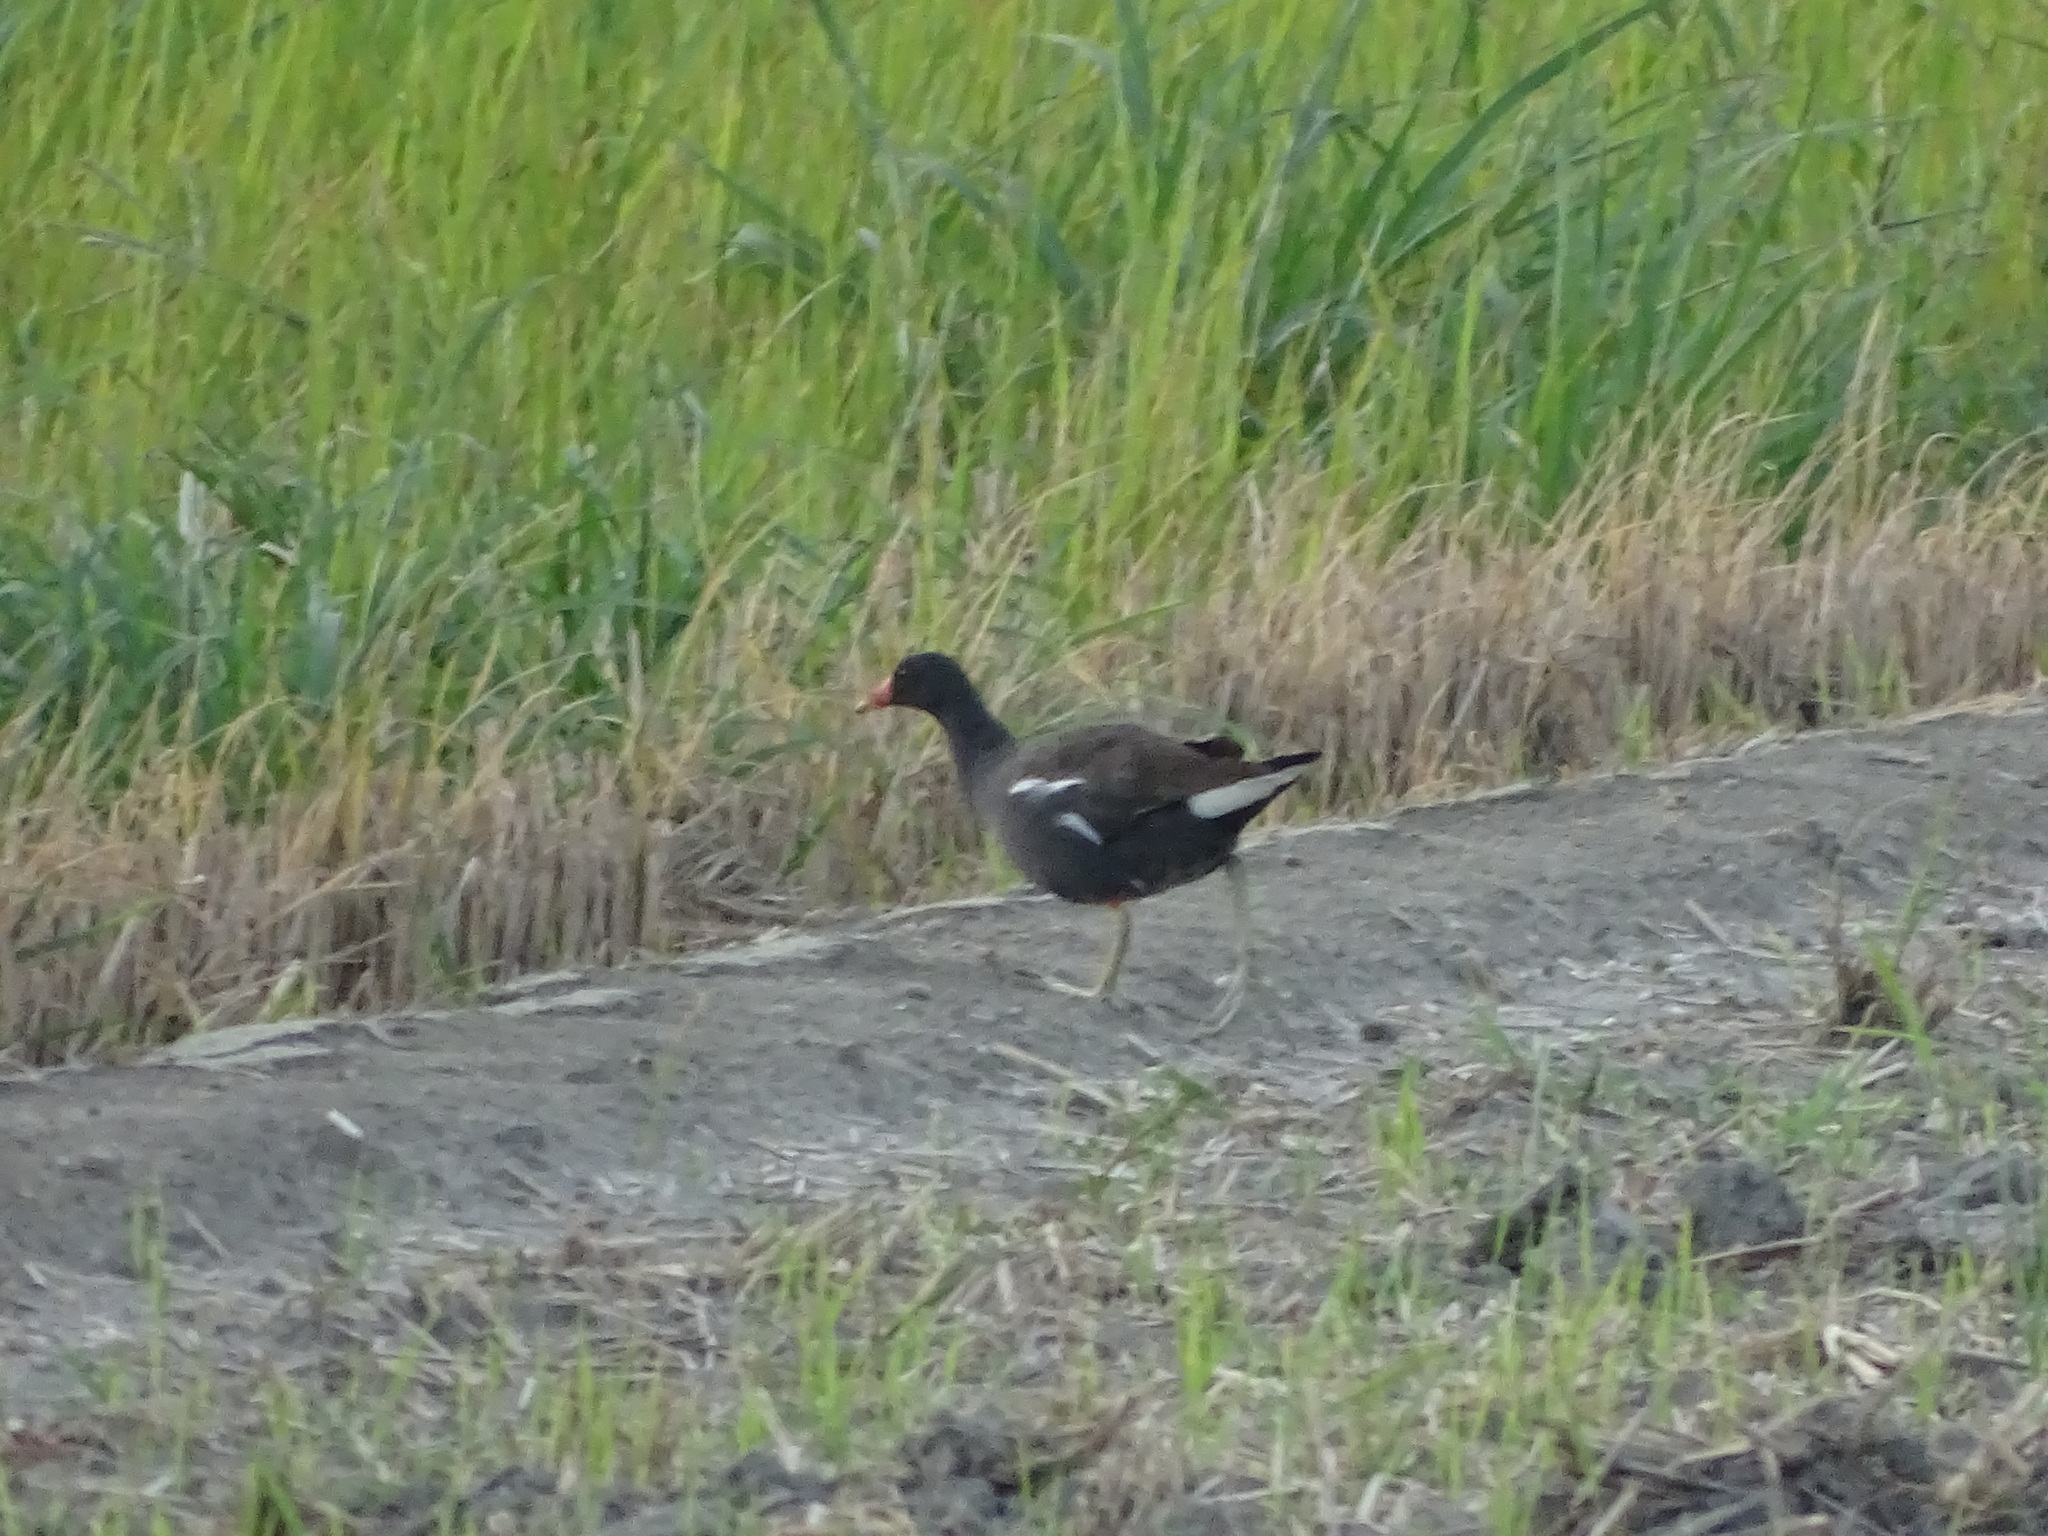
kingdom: Animalia
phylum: Chordata
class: Aves
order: Gruiformes
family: Rallidae
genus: Gallinula
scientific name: Gallinula chloropus
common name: Common moorhen
